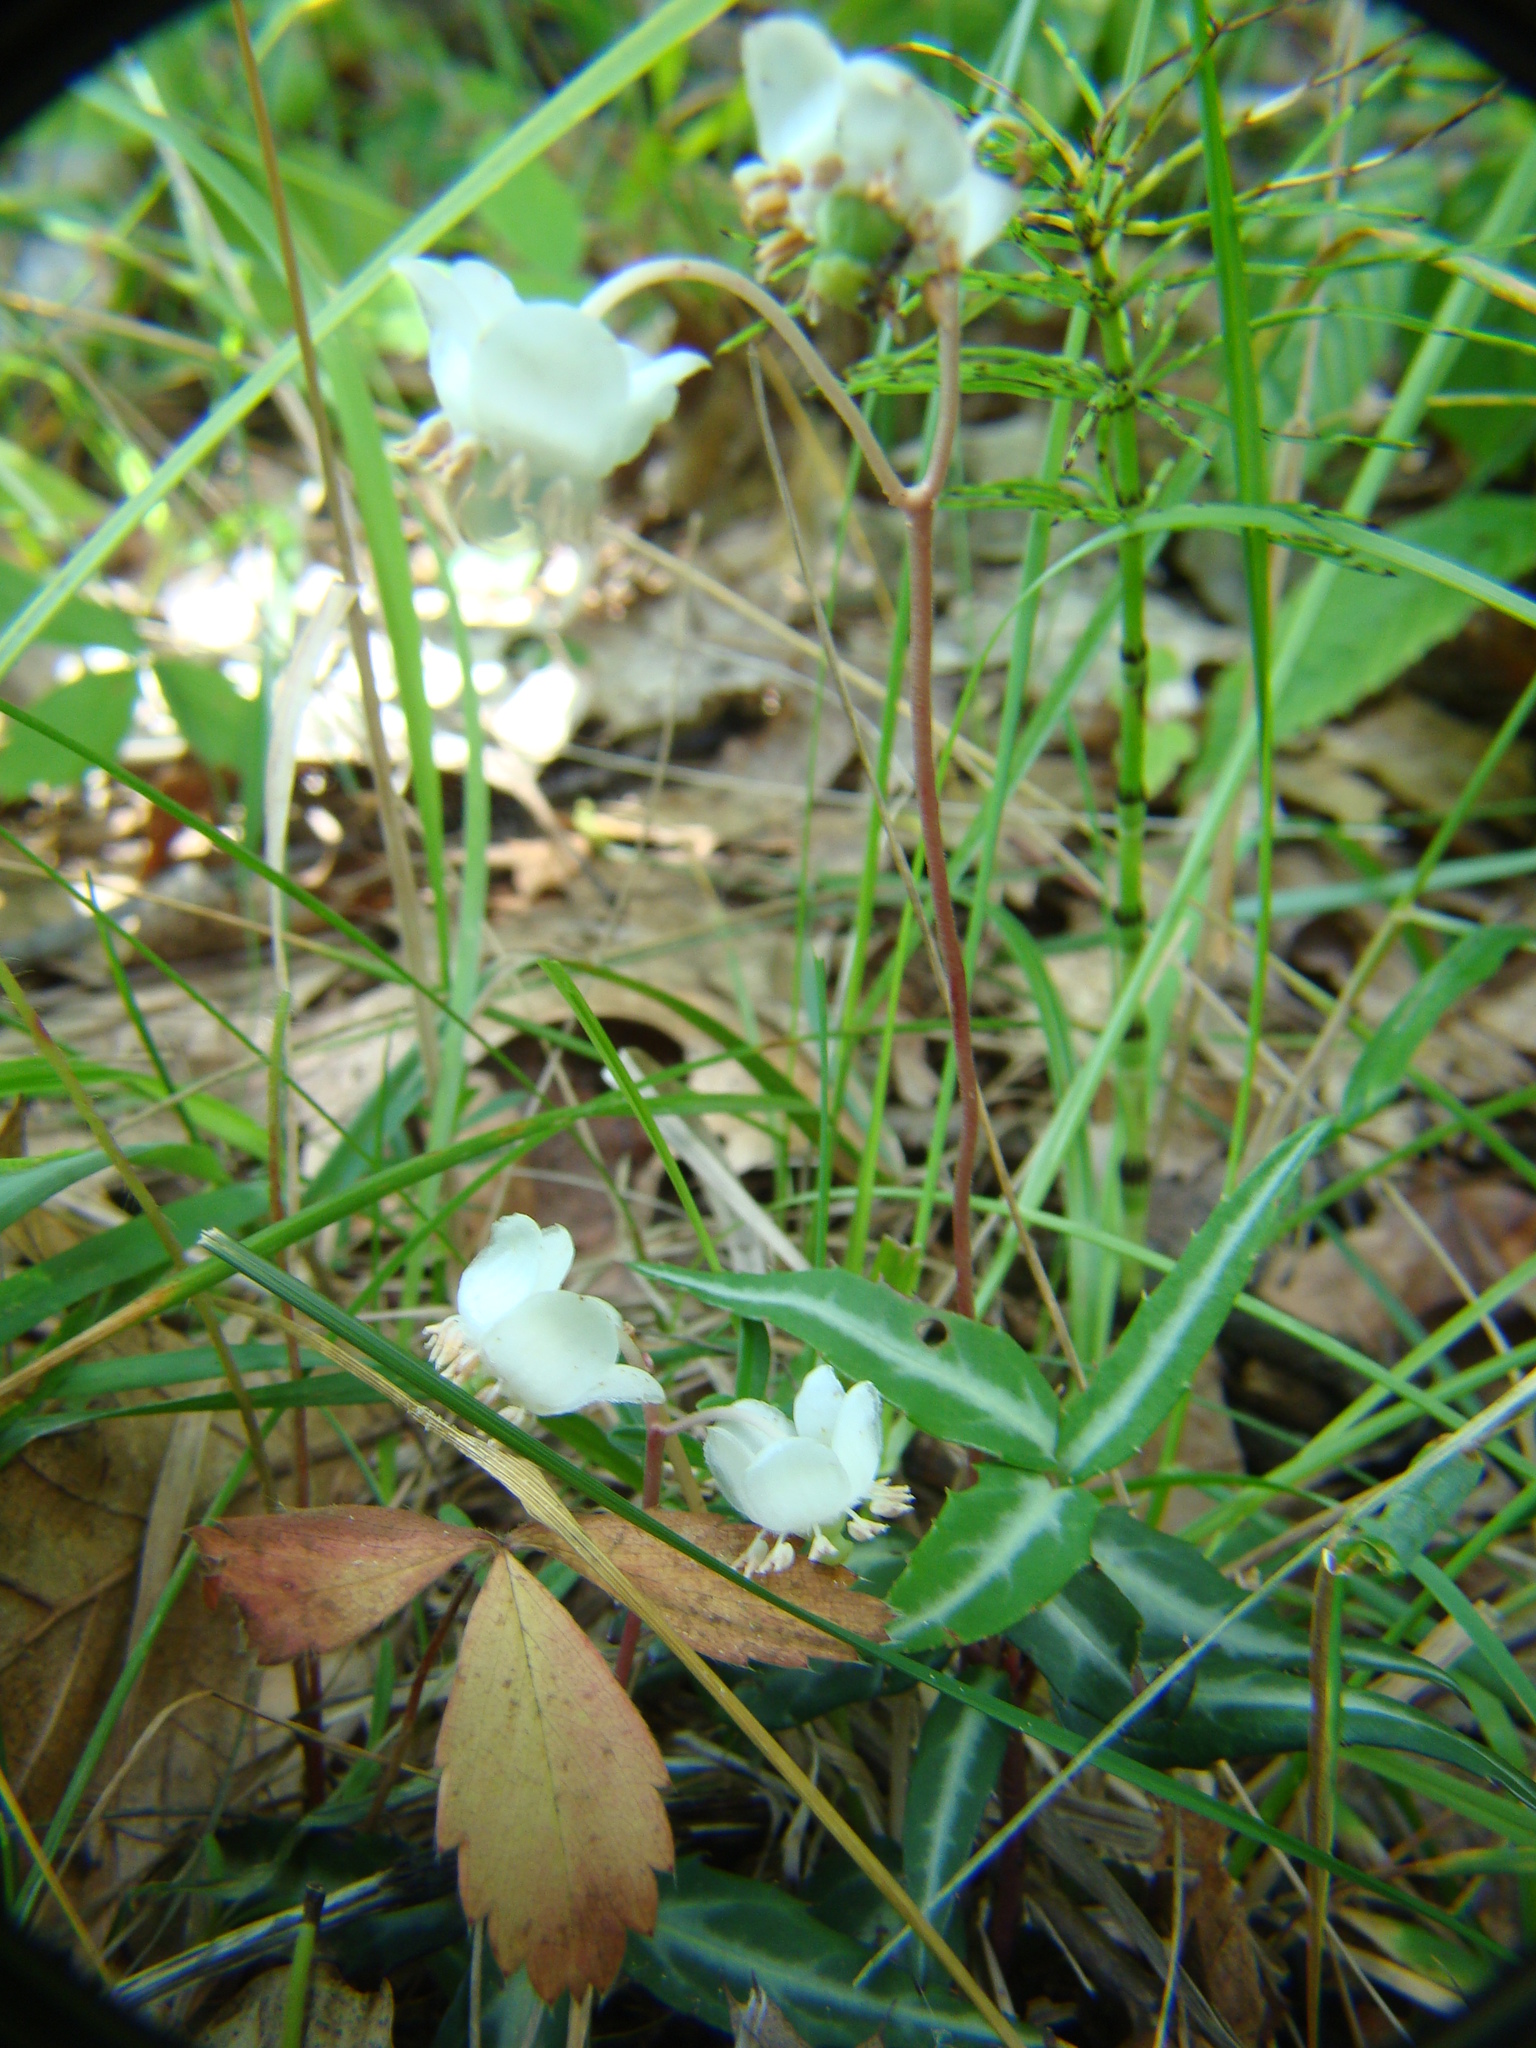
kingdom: Plantae
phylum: Tracheophyta
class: Magnoliopsida
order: Ericales
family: Ericaceae
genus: Chimaphila
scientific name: Chimaphila maculata
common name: Spotted pipsissewa
